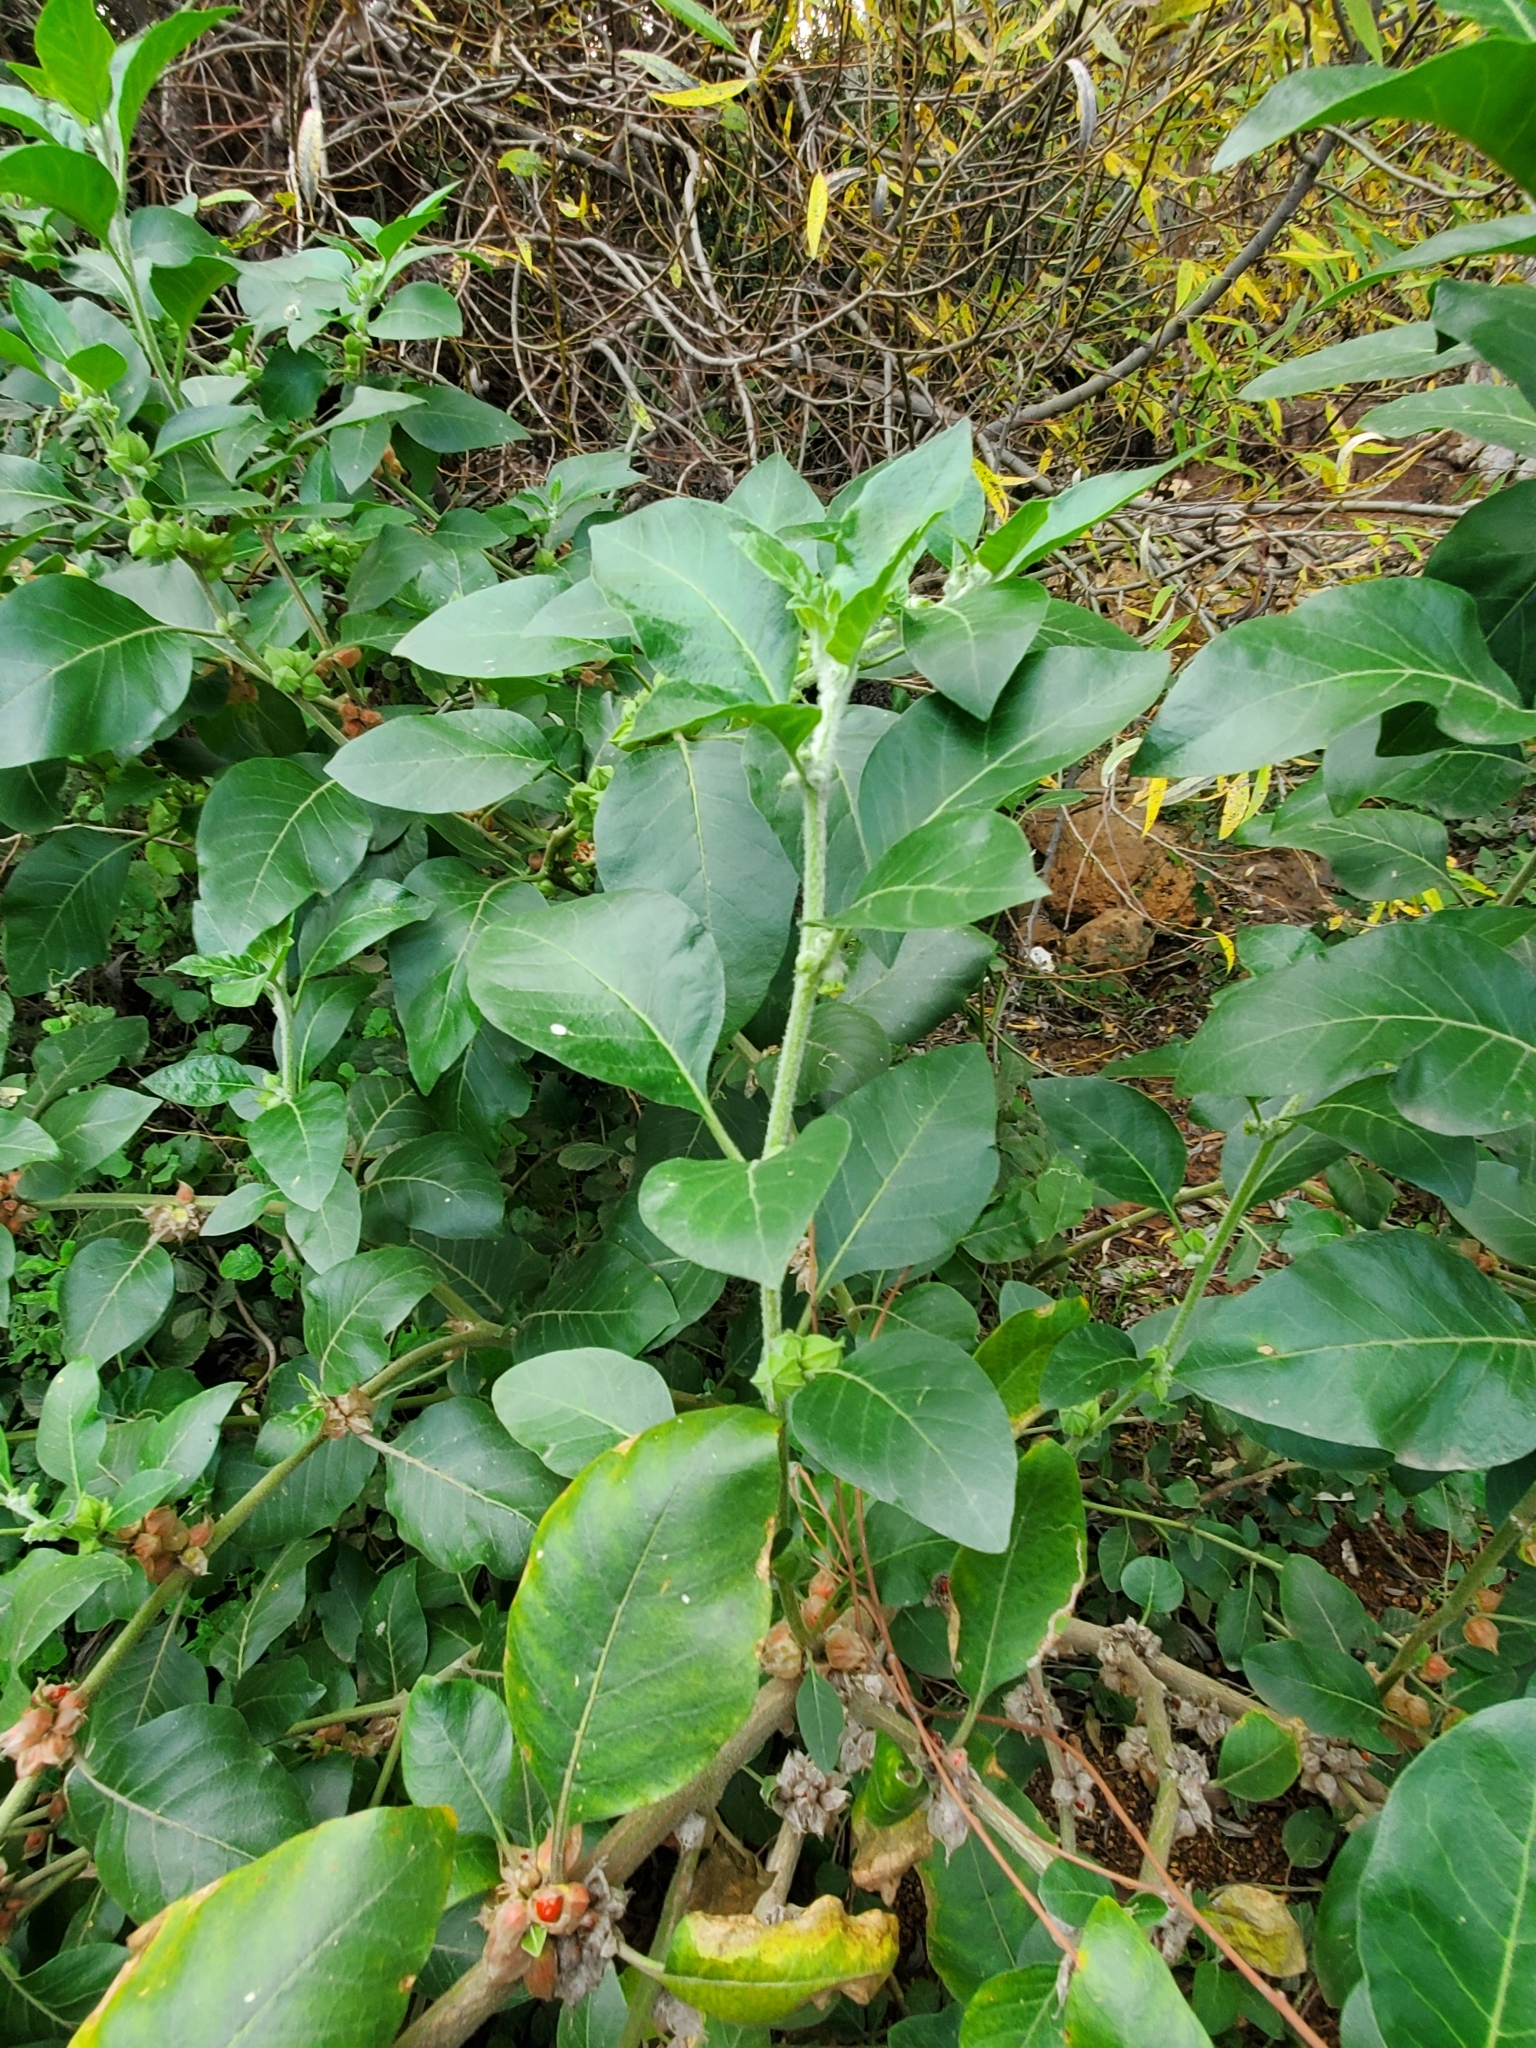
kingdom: Plantae
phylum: Tracheophyta
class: Magnoliopsida
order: Solanales
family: Solanaceae
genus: Withania
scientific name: Withania somnifera
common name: Winter-cherry
